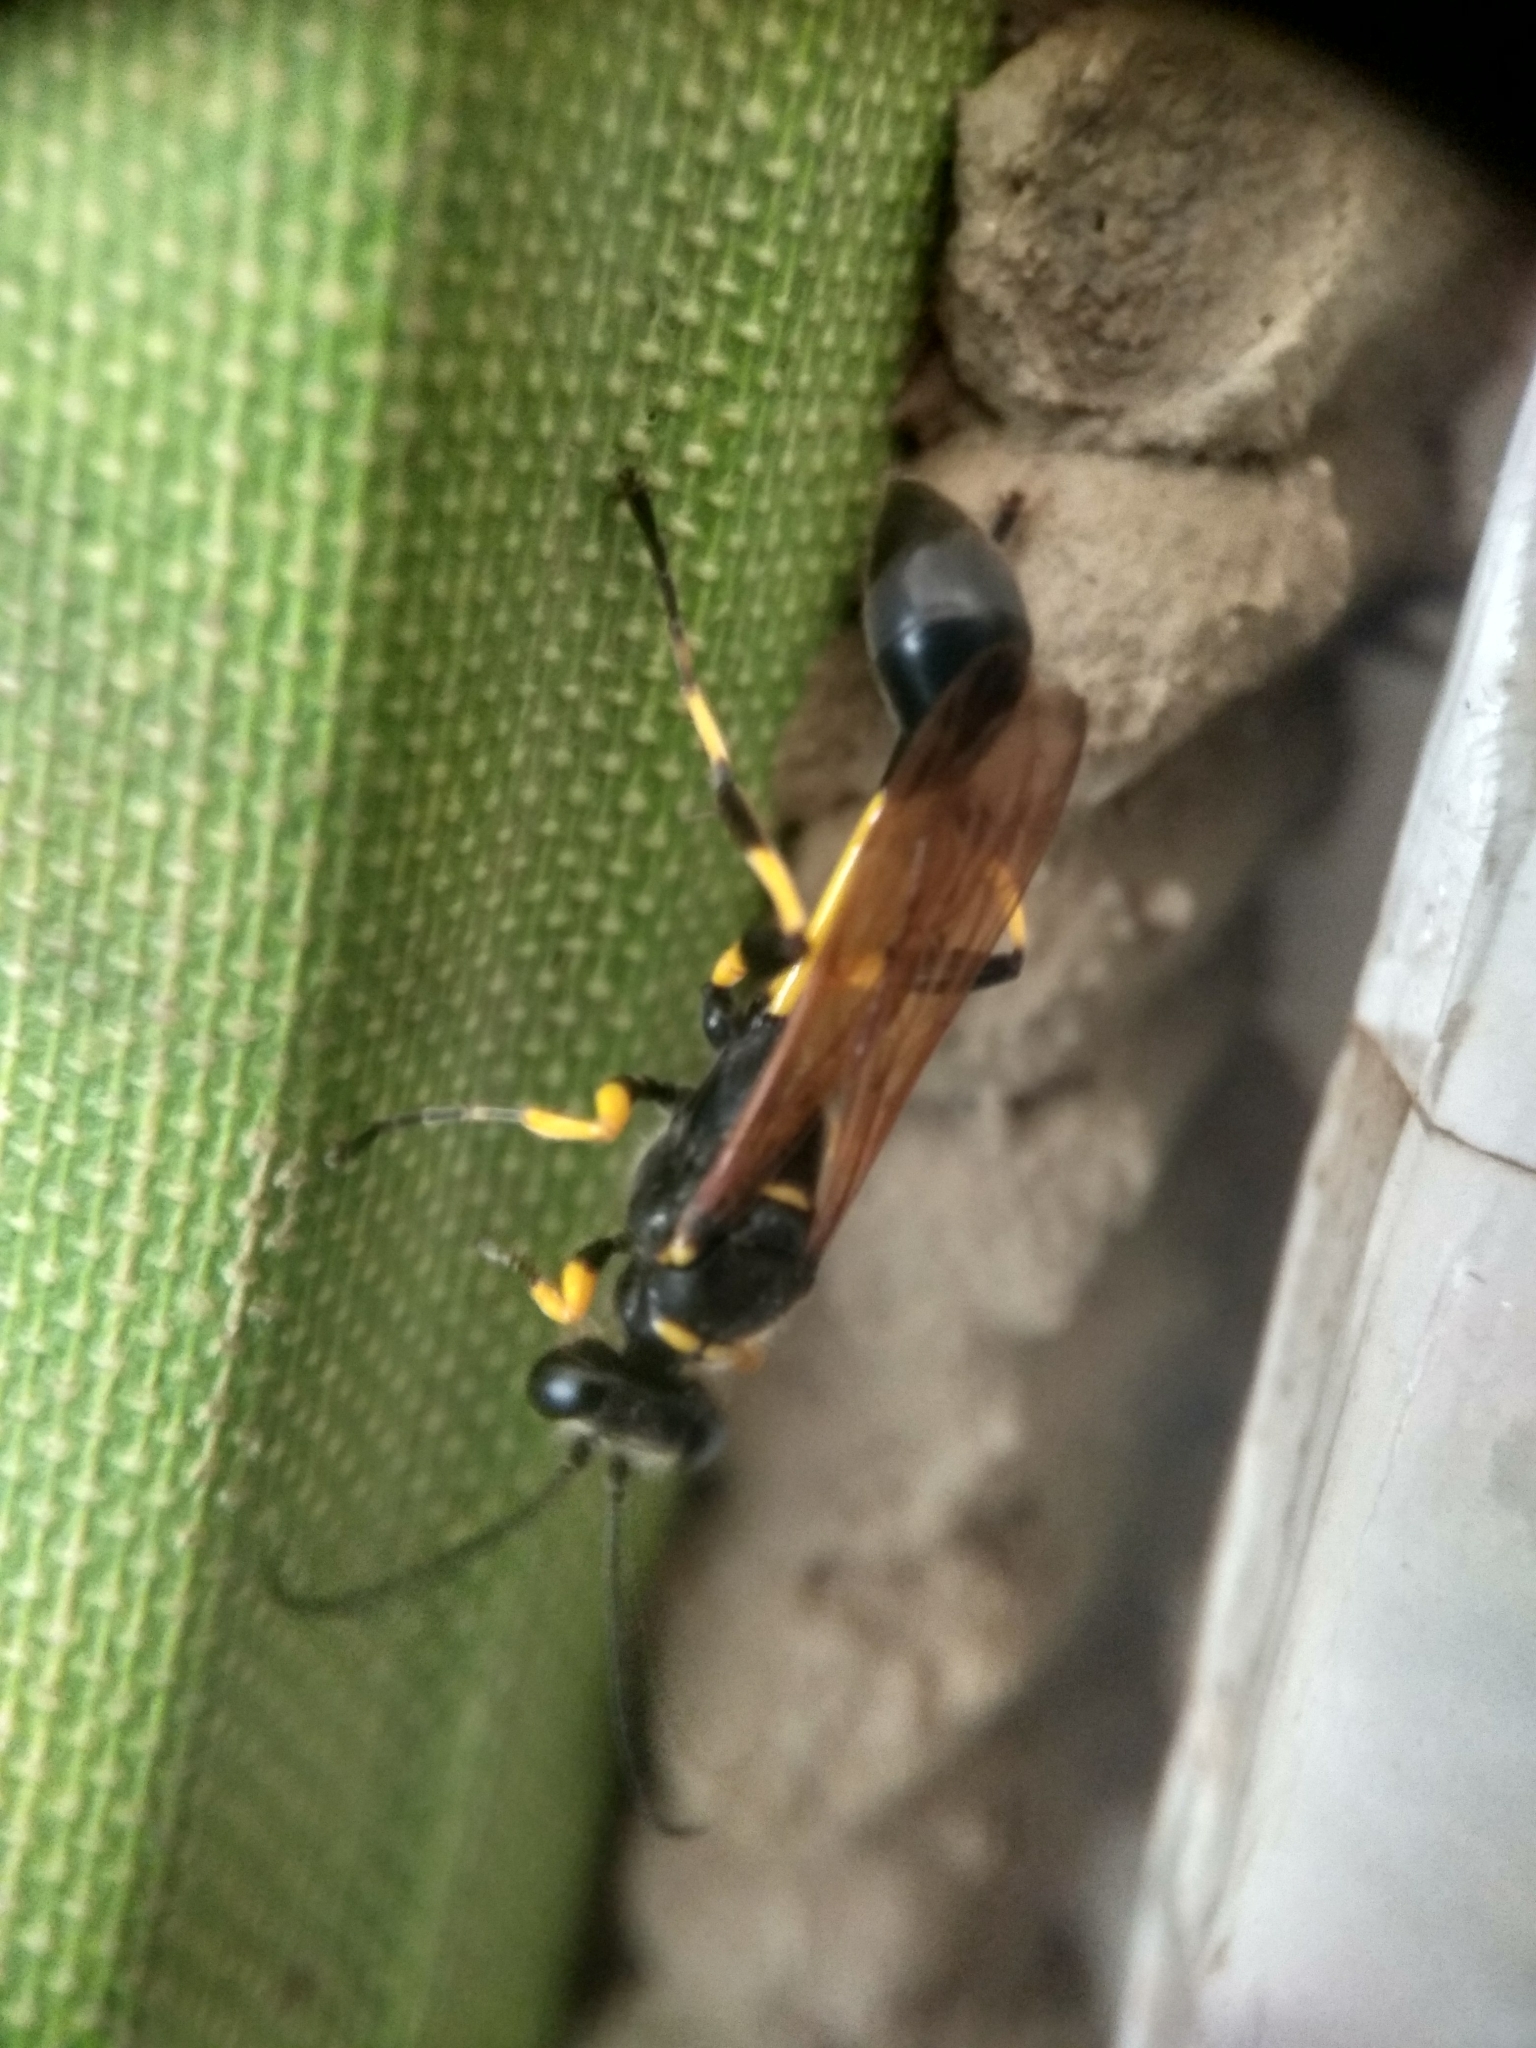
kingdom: Animalia
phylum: Arthropoda
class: Insecta
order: Hymenoptera
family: Sphecidae
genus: Sceliphron
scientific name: Sceliphron madraspatanum
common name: Mud dauber
